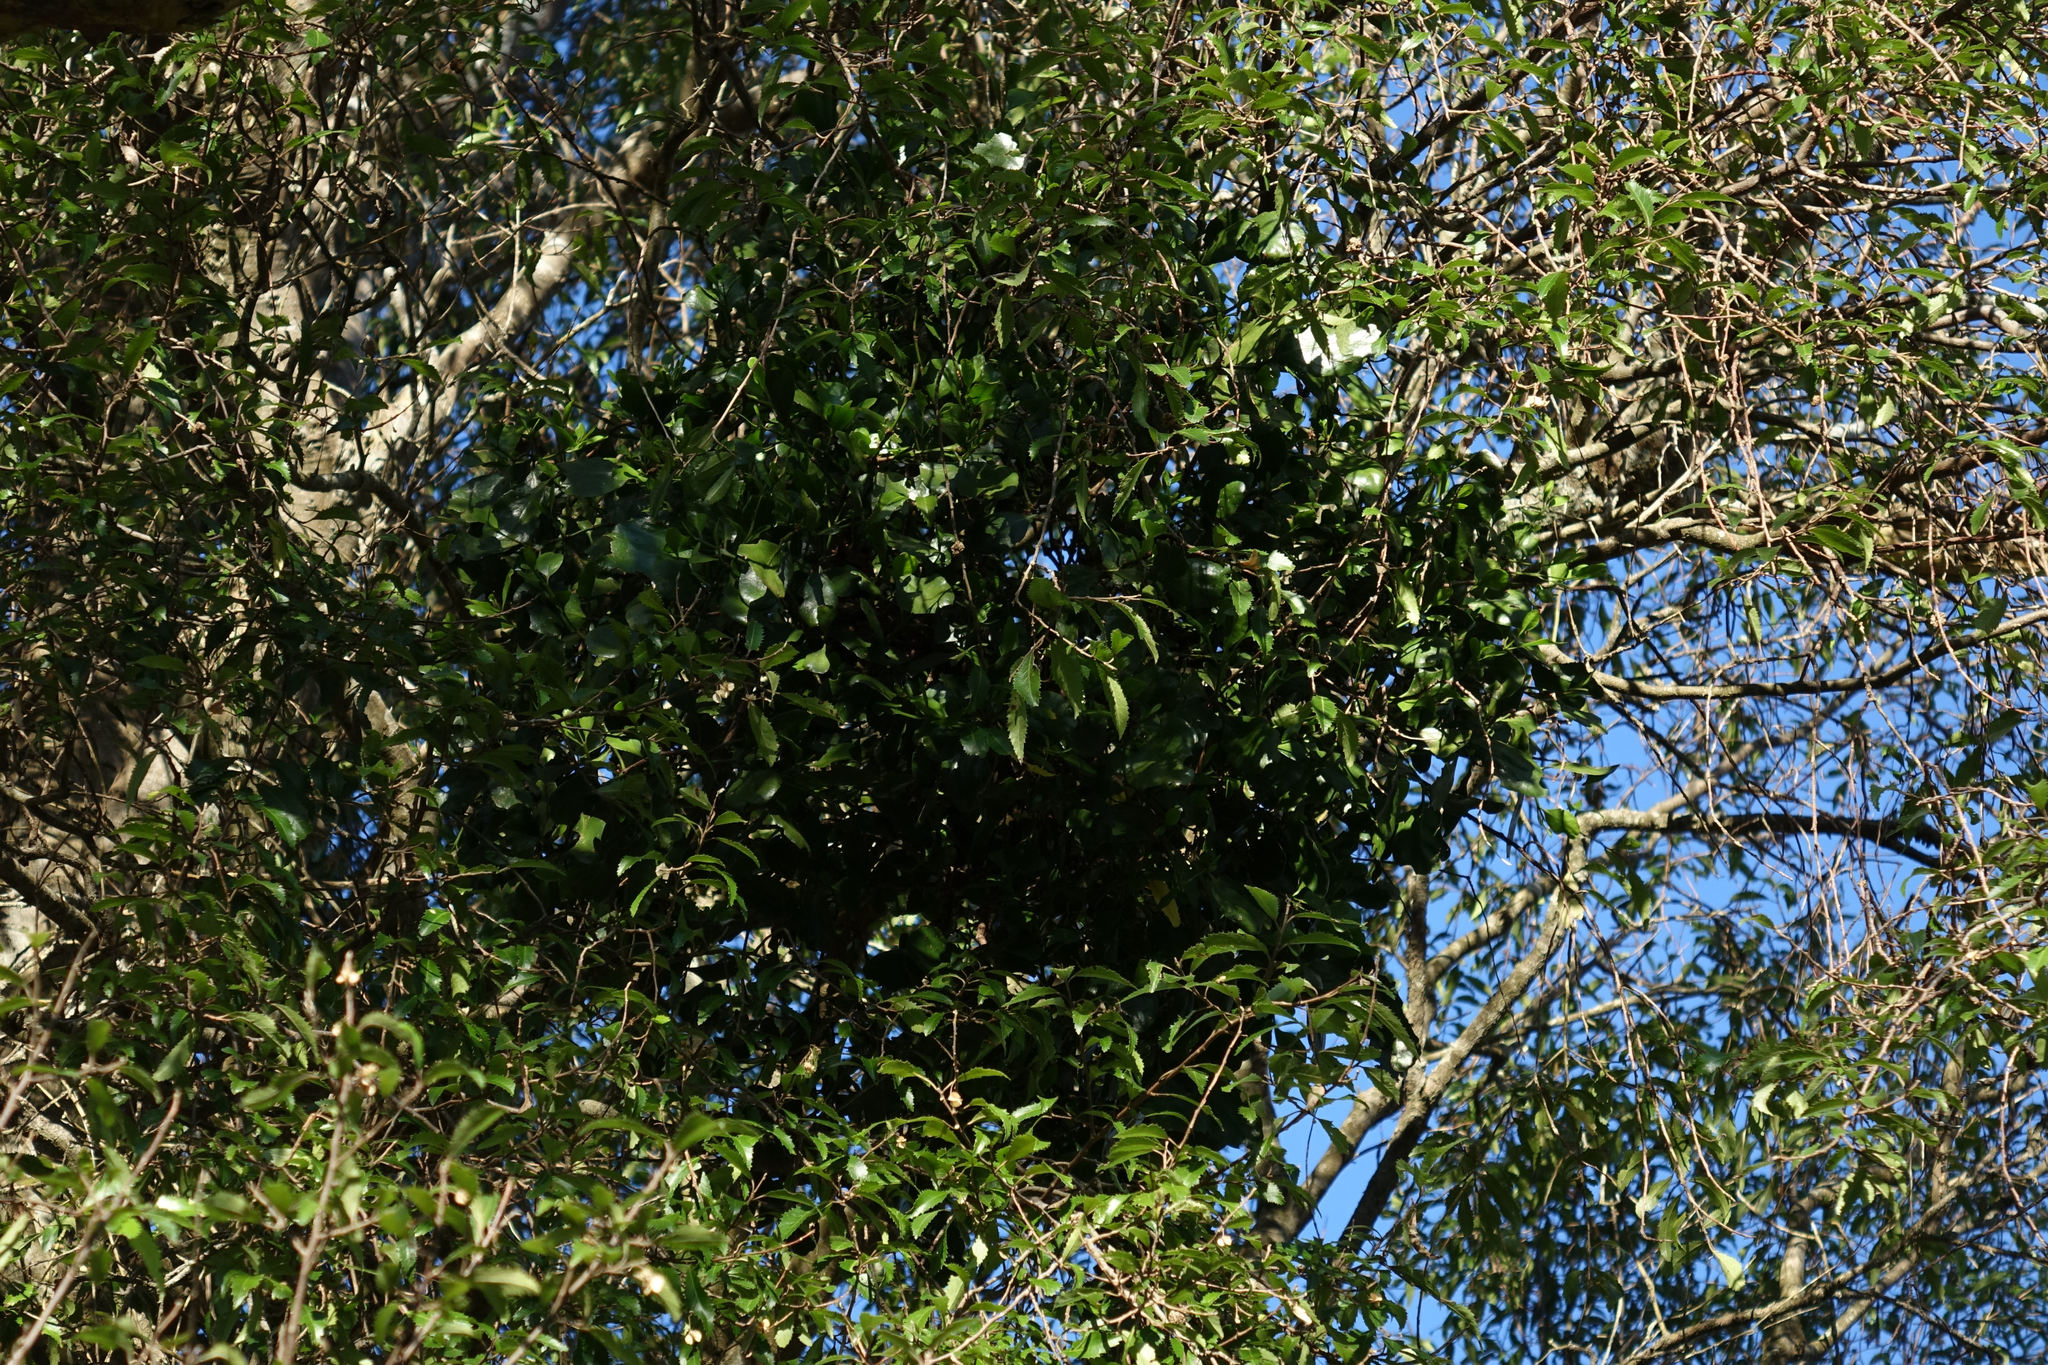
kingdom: Plantae
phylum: Tracheophyta
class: Magnoliopsida
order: Santalales
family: Loranthaceae
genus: Ileostylus
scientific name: Ileostylus micranthus
